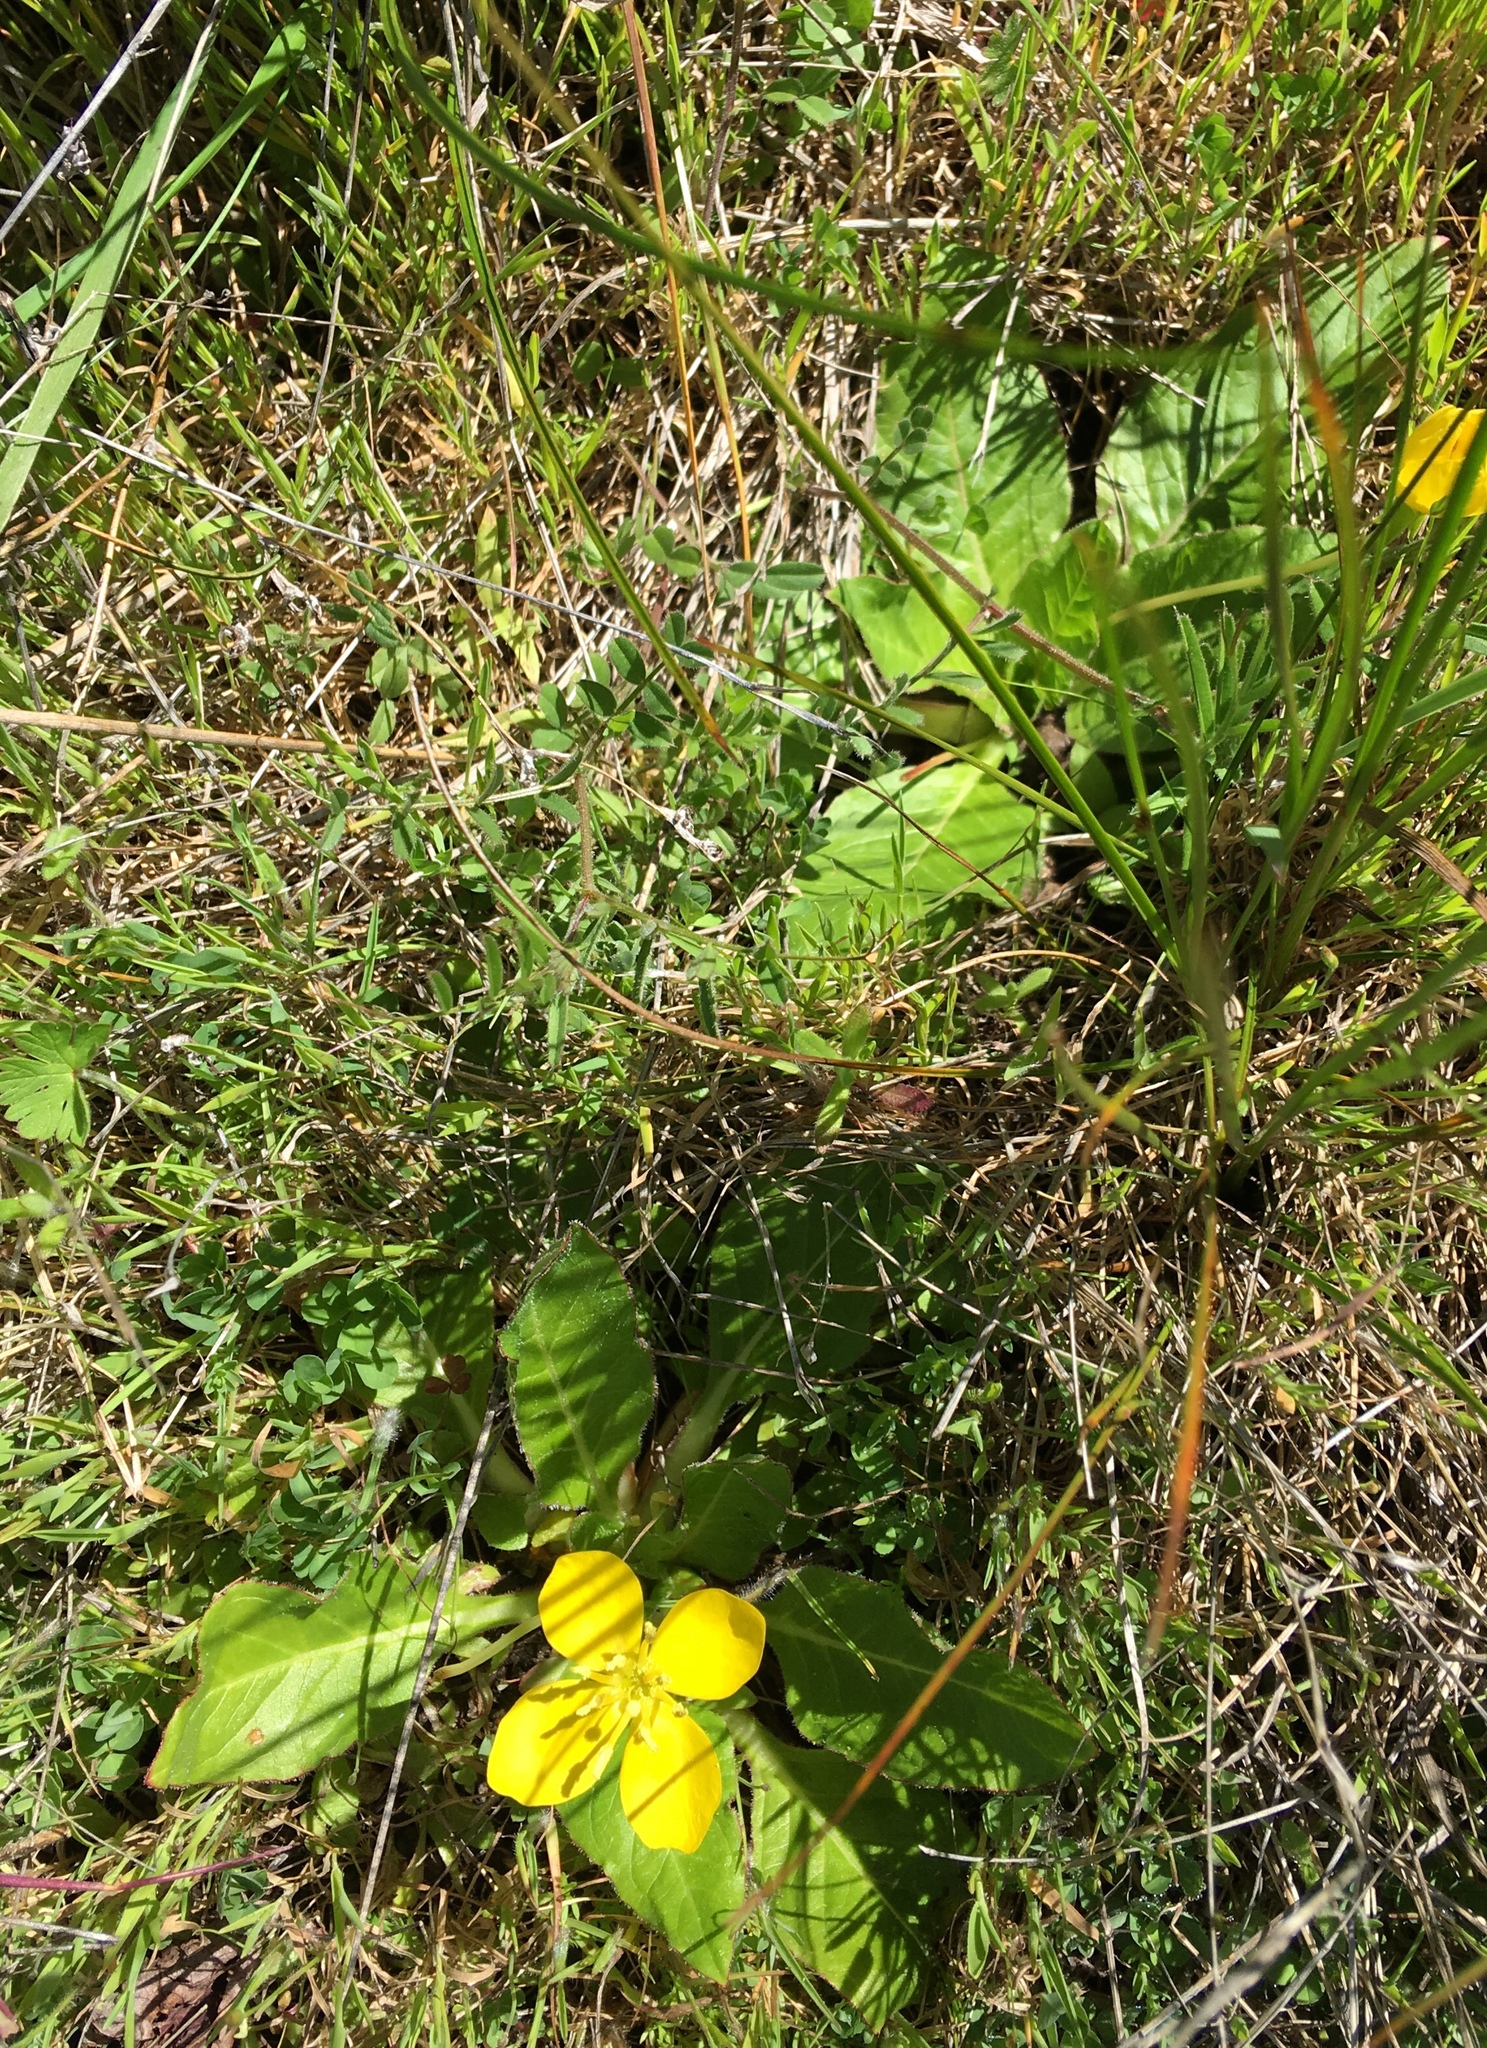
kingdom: Plantae
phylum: Tracheophyta
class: Magnoliopsida
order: Myrtales
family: Onagraceae
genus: Taraxia
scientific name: Taraxia ovata
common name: Goldeneggs
